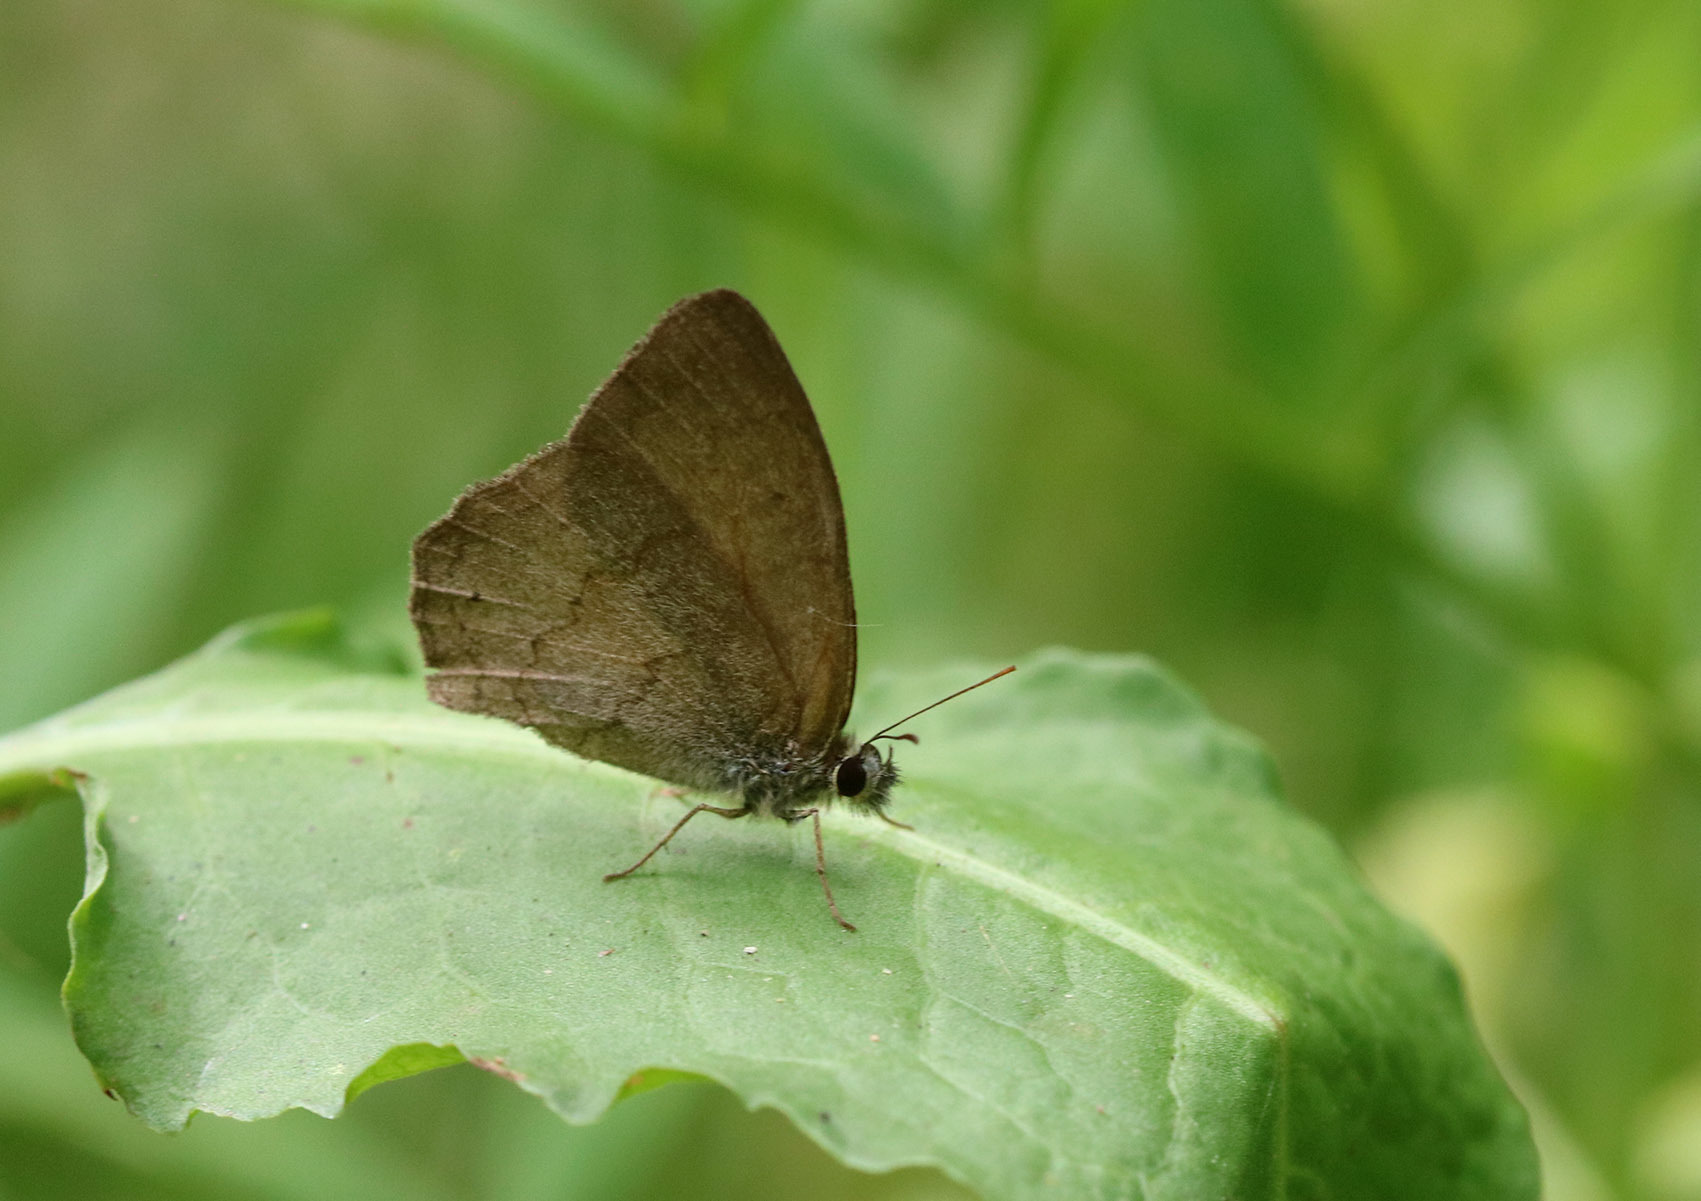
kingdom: Animalia
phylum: Arthropoda
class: Insecta
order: Lepidoptera
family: Nymphalidae
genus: Euptychia
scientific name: Euptychia
